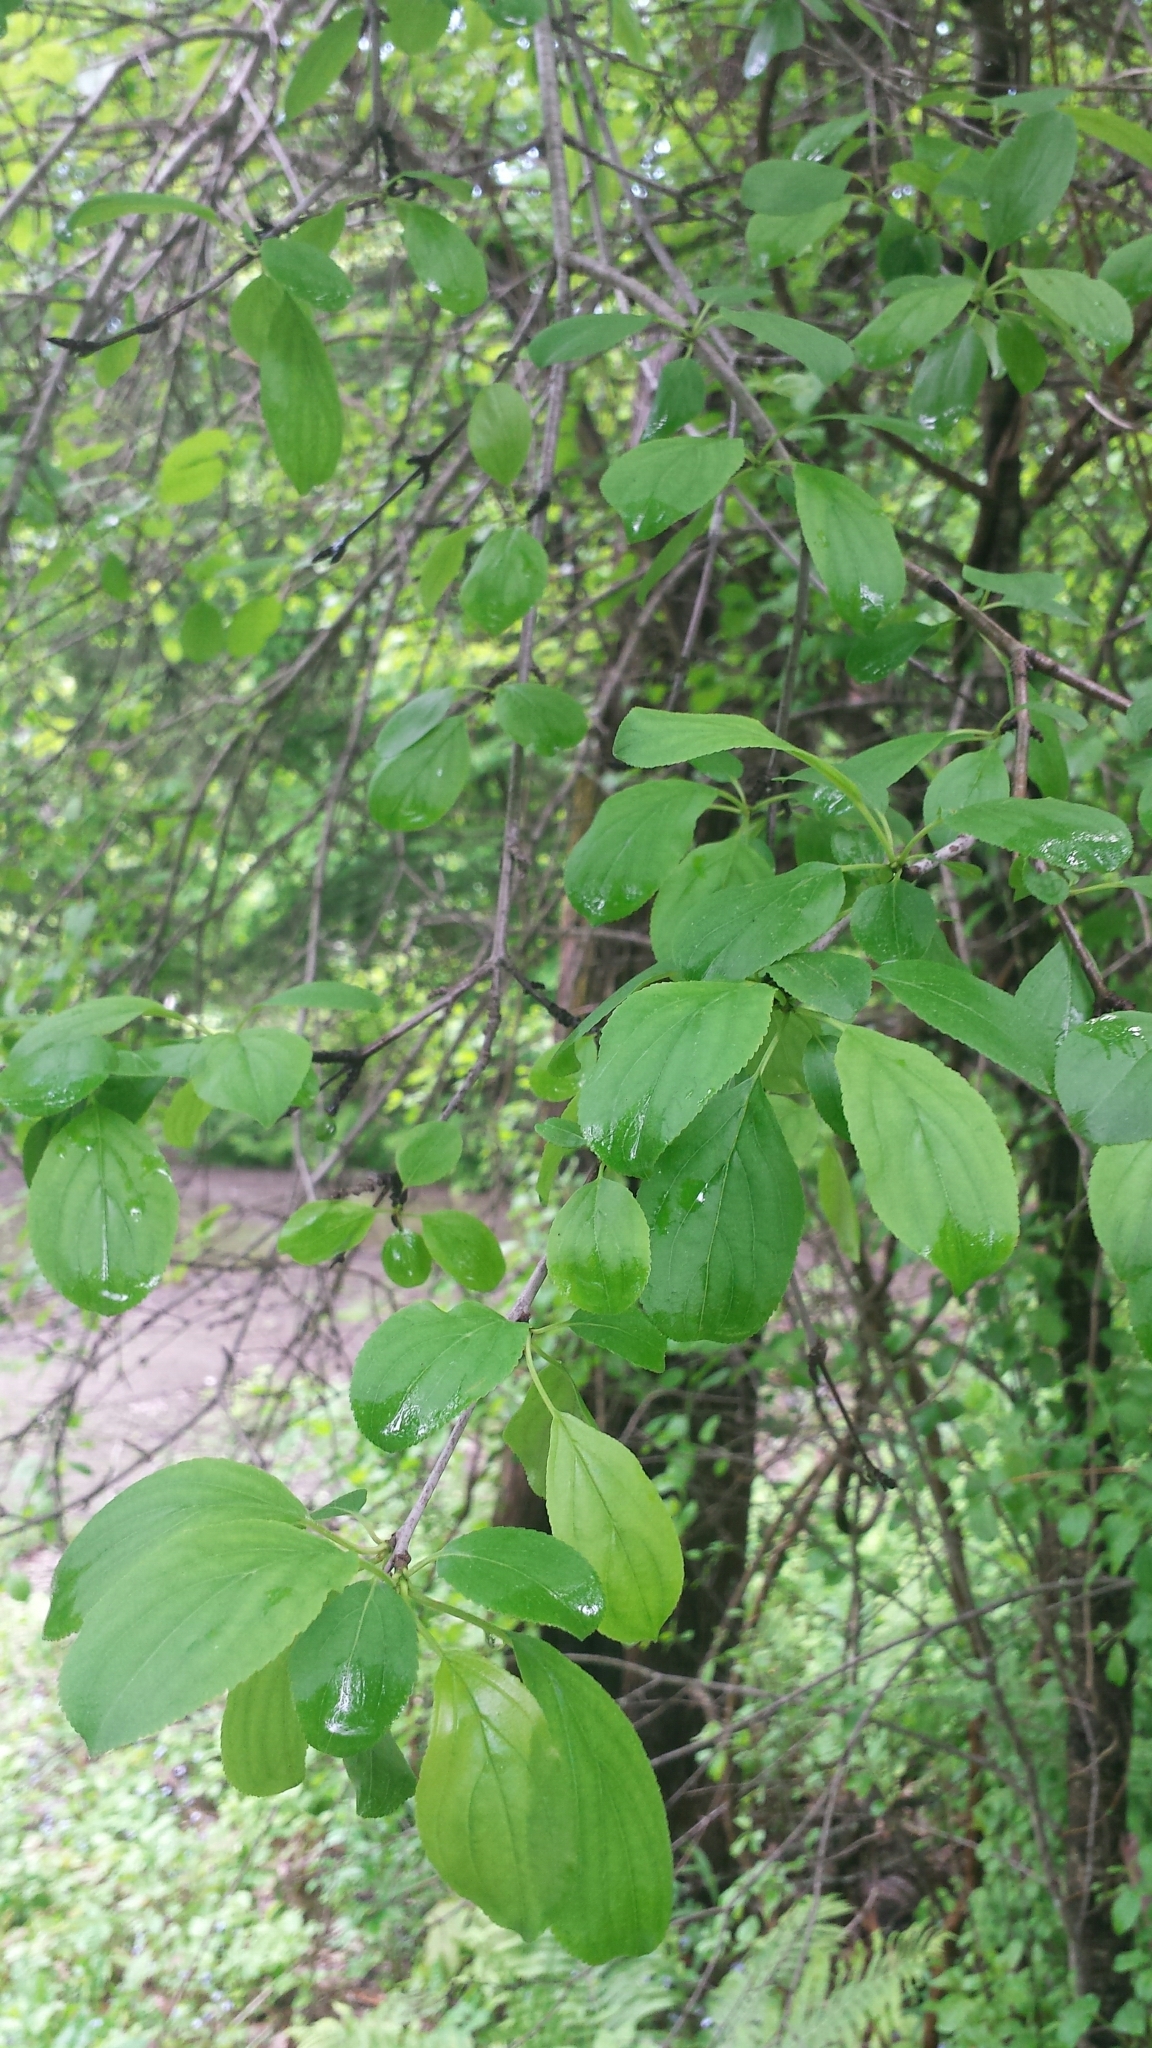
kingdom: Plantae
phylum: Tracheophyta
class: Magnoliopsida
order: Rosales
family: Rhamnaceae
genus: Rhamnus
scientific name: Rhamnus cathartica
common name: Common buckthorn
